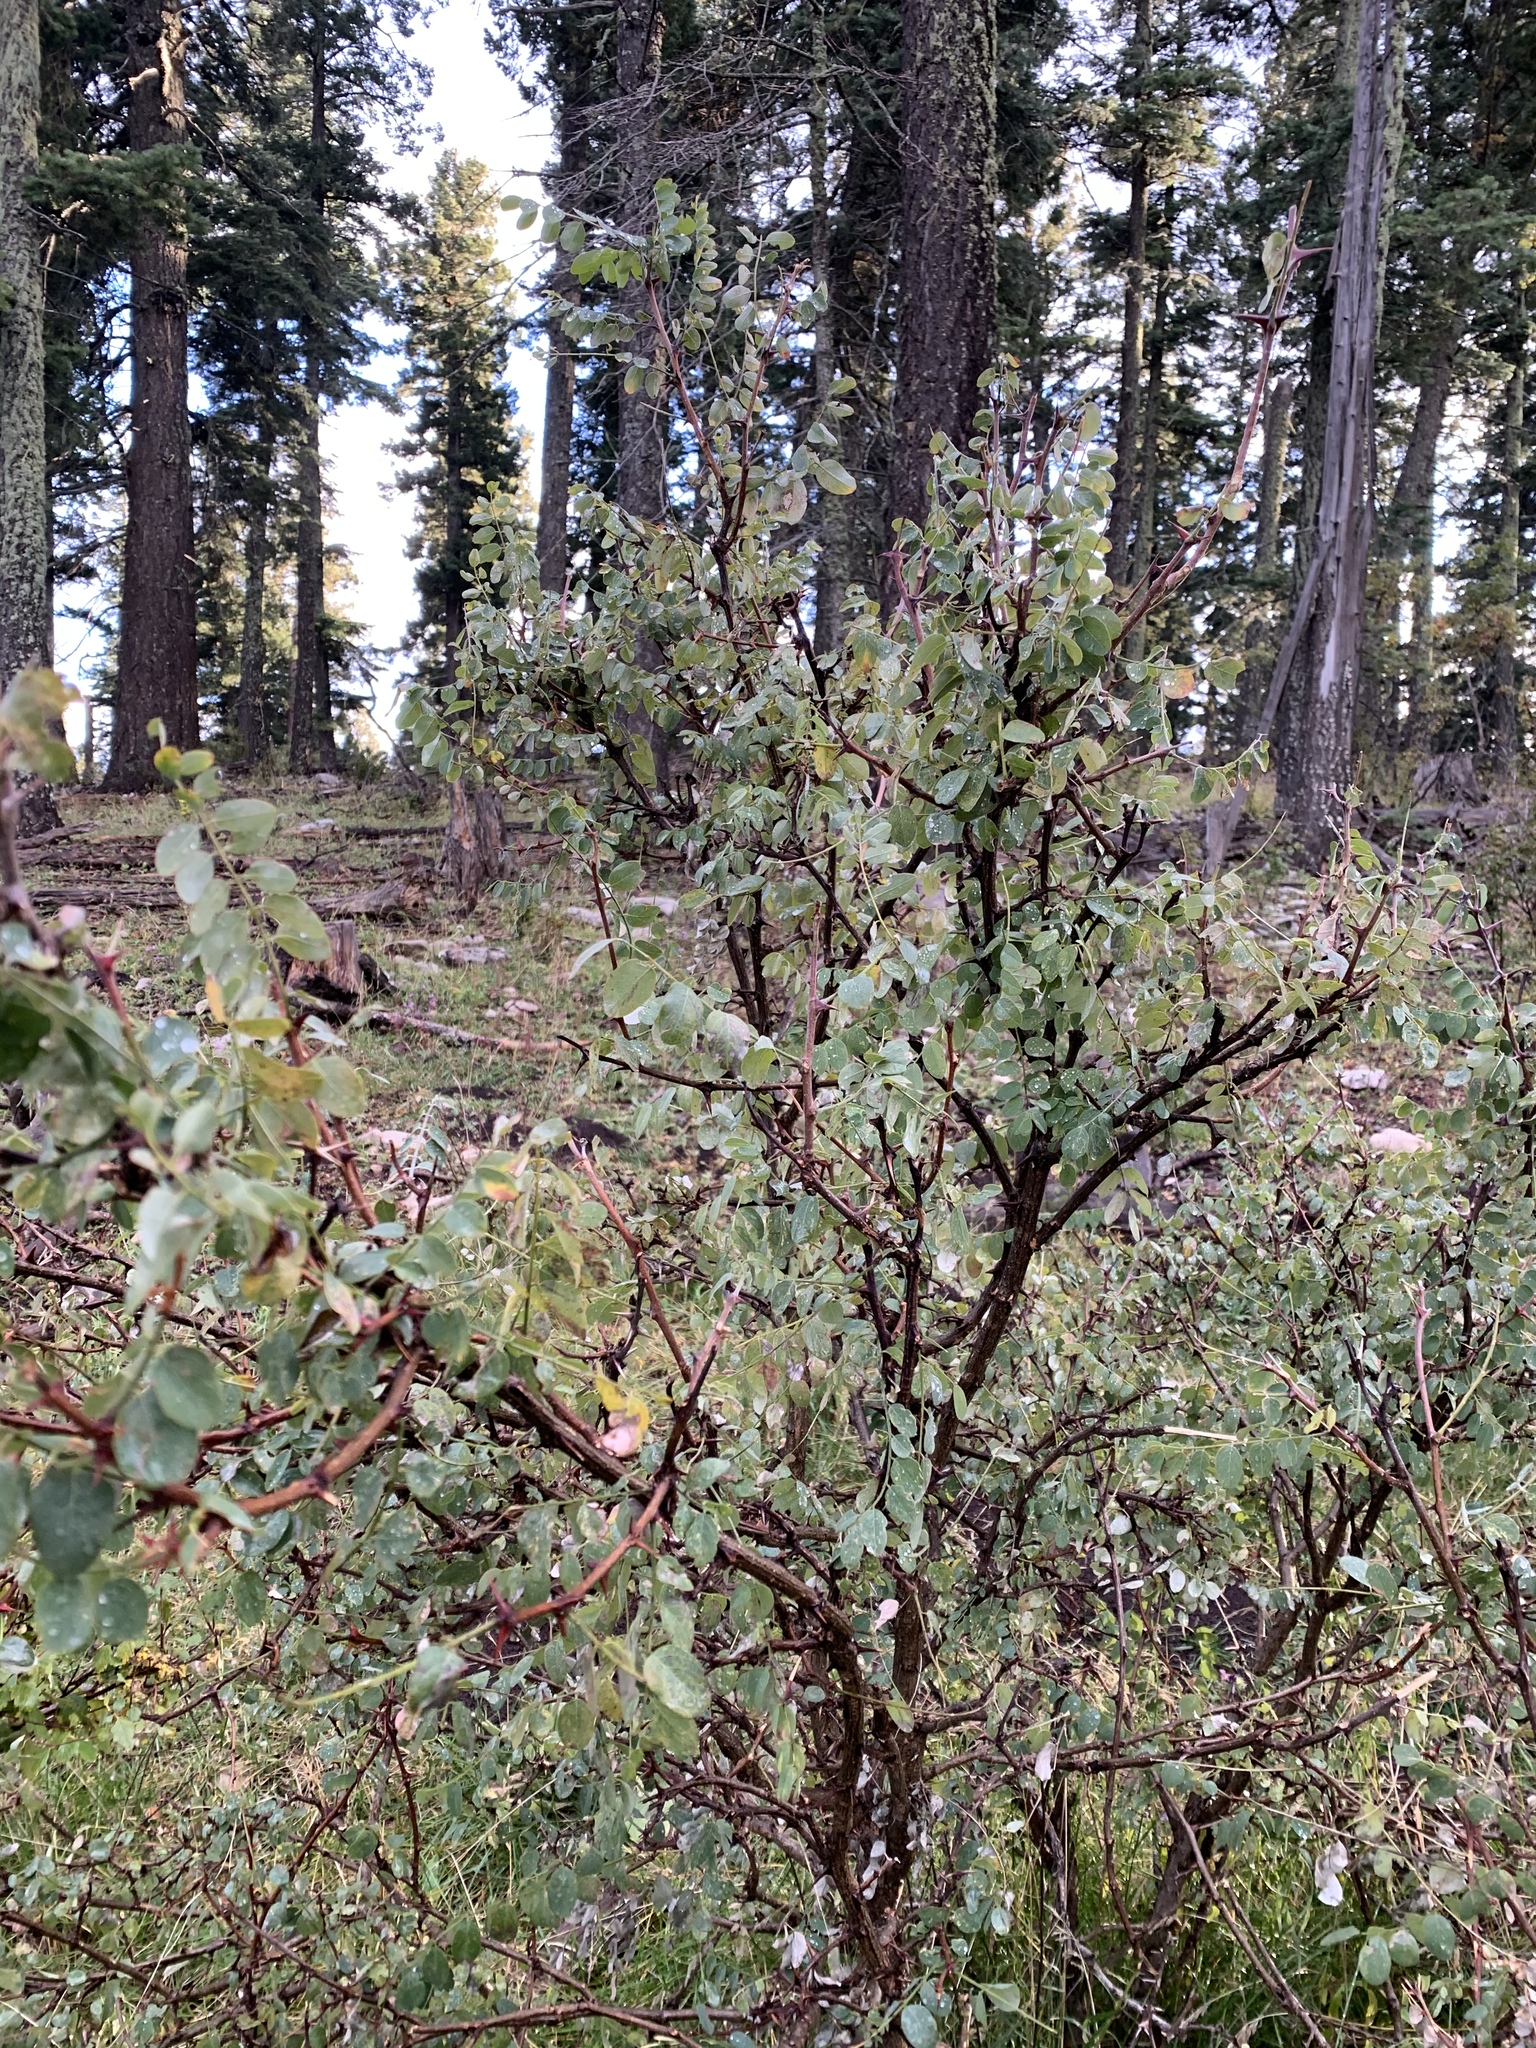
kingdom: Plantae
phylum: Tracheophyta
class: Magnoliopsida
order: Fabales
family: Fabaceae
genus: Robinia
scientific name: Robinia neomexicana
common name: New mexico locust
